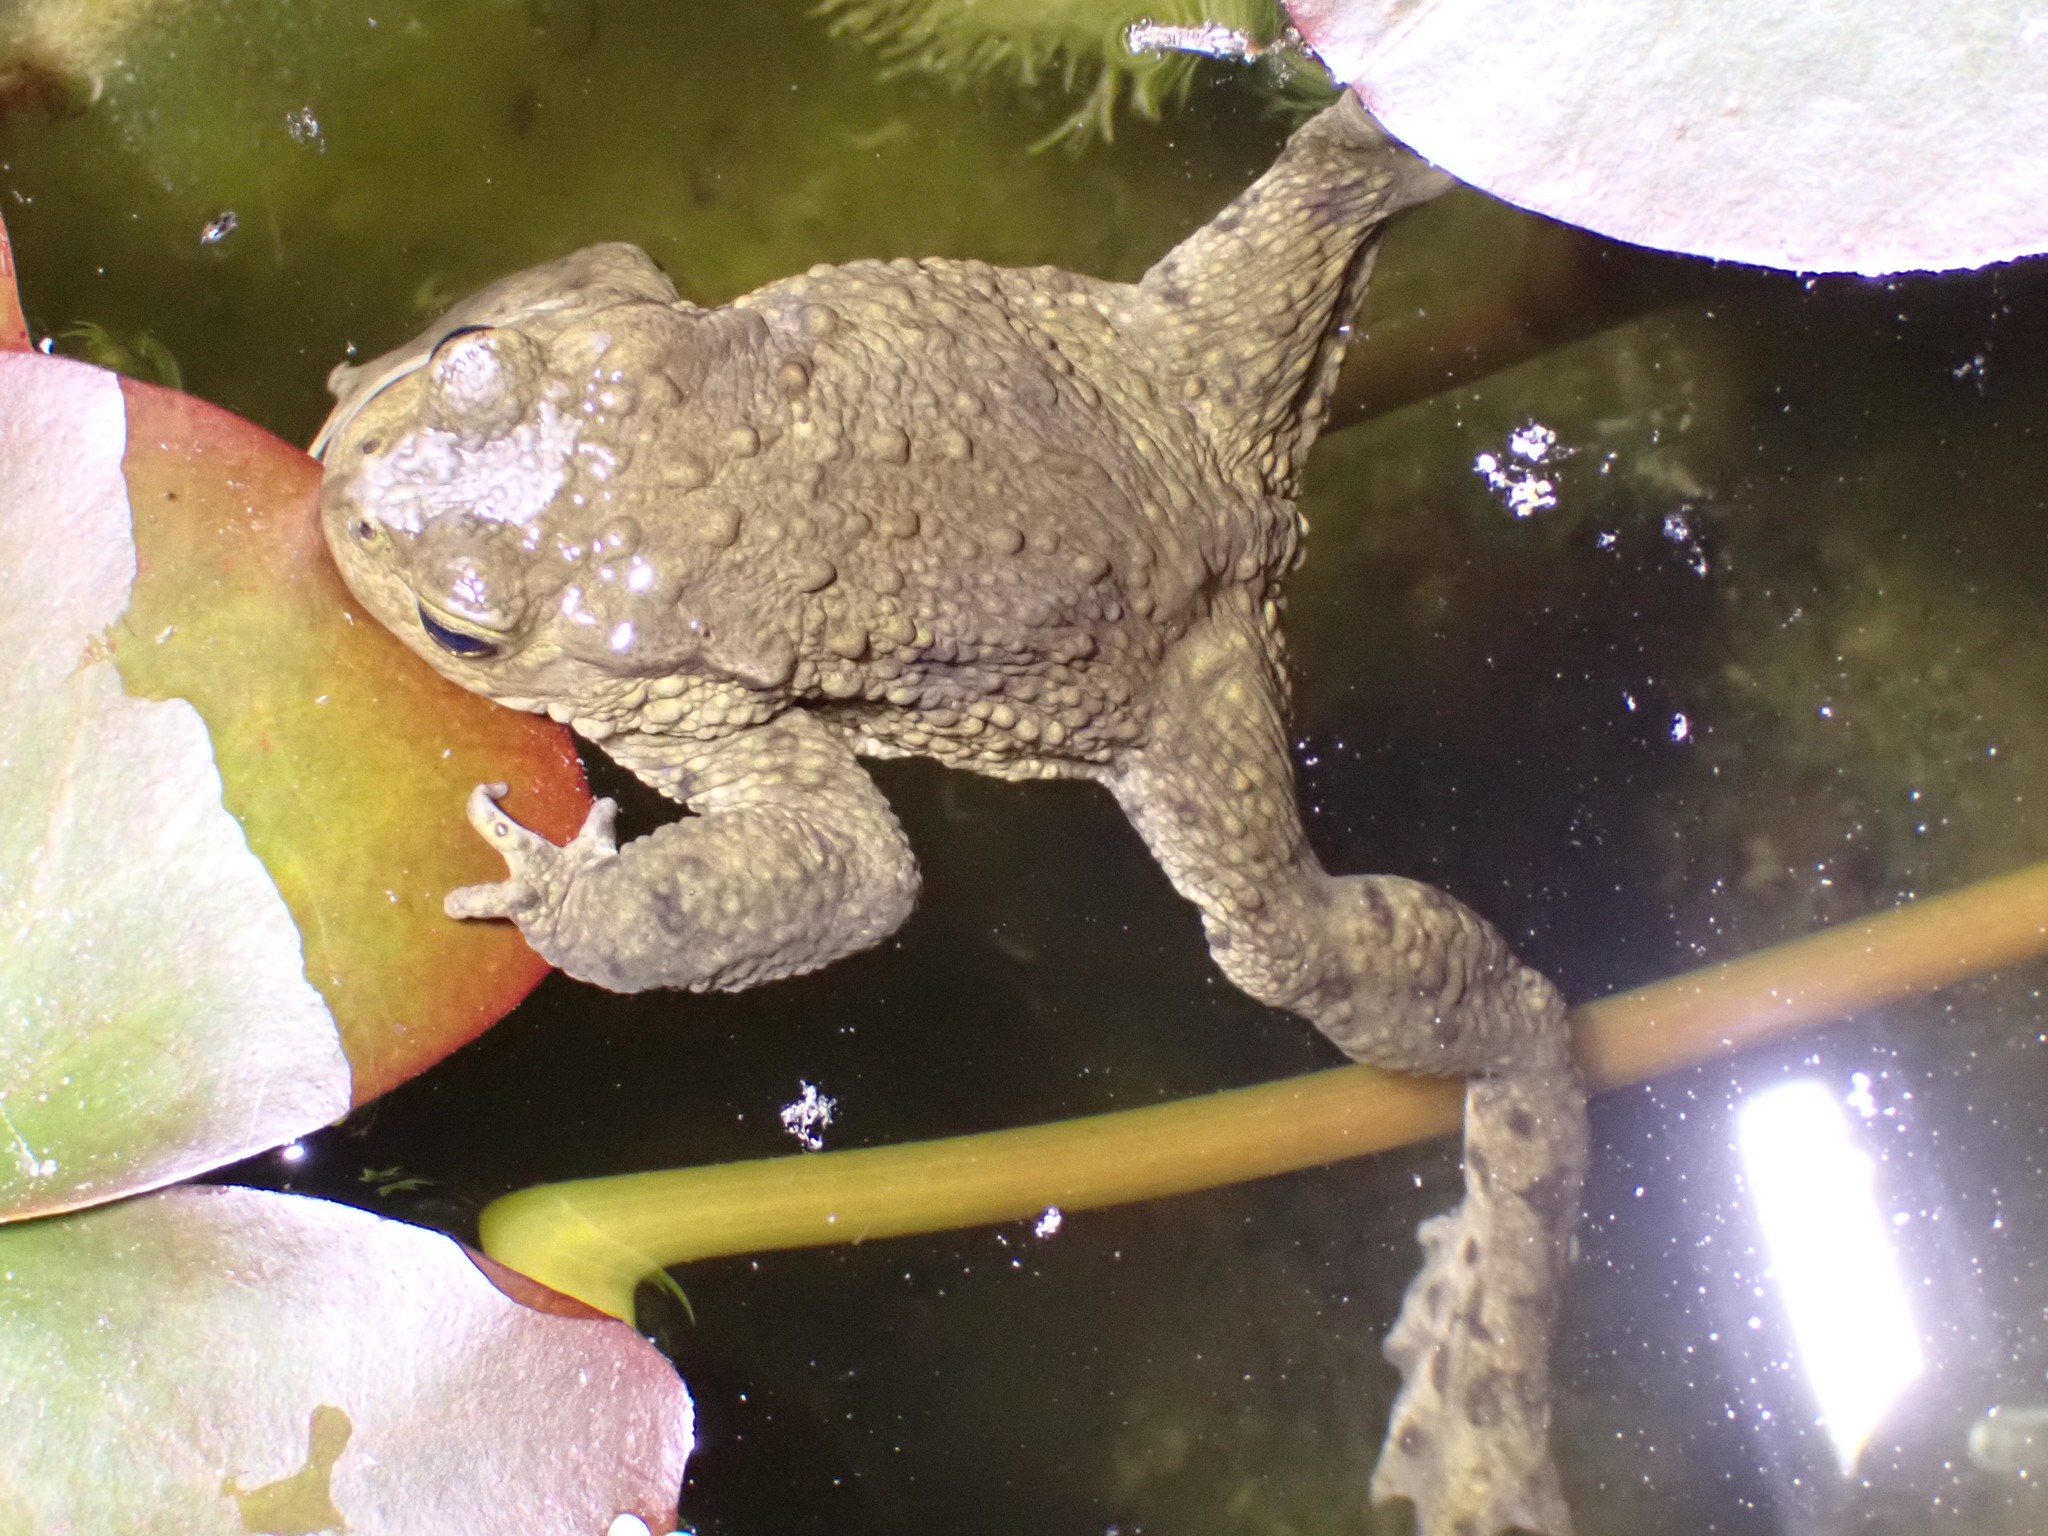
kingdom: Animalia
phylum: Chordata
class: Amphibia
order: Anura
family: Bufonidae
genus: Bufo
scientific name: Bufo bufo
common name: Common toad
